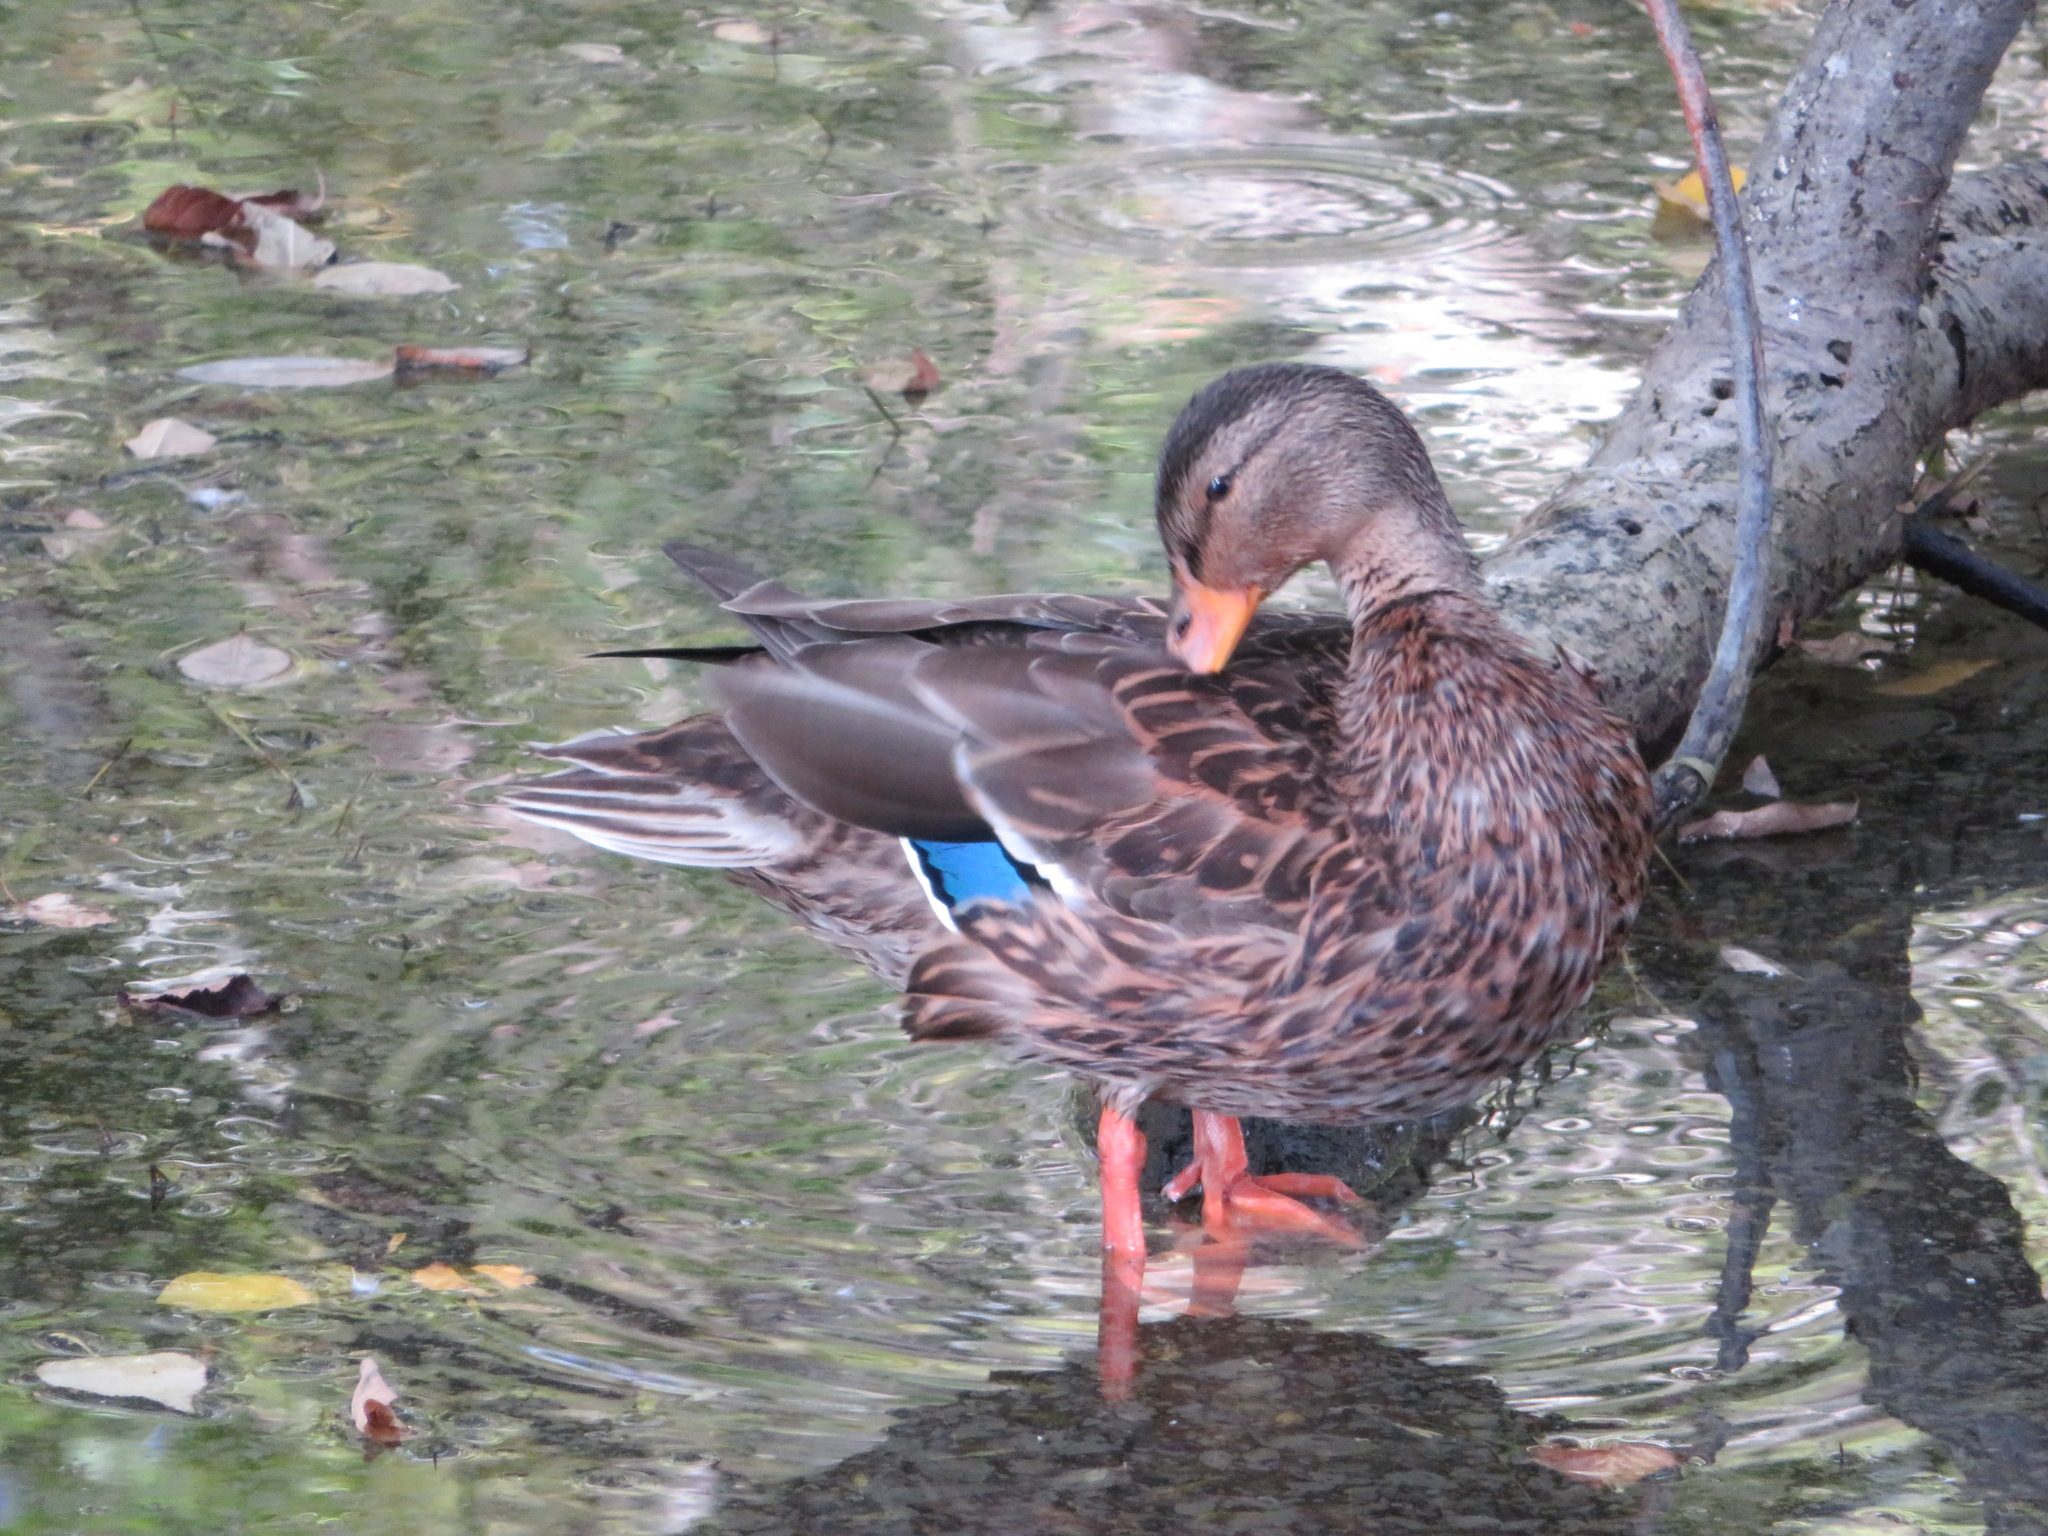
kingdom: Animalia
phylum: Chordata
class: Aves
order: Anseriformes
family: Anatidae
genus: Anas
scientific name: Anas platyrhynchos
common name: Mallard
